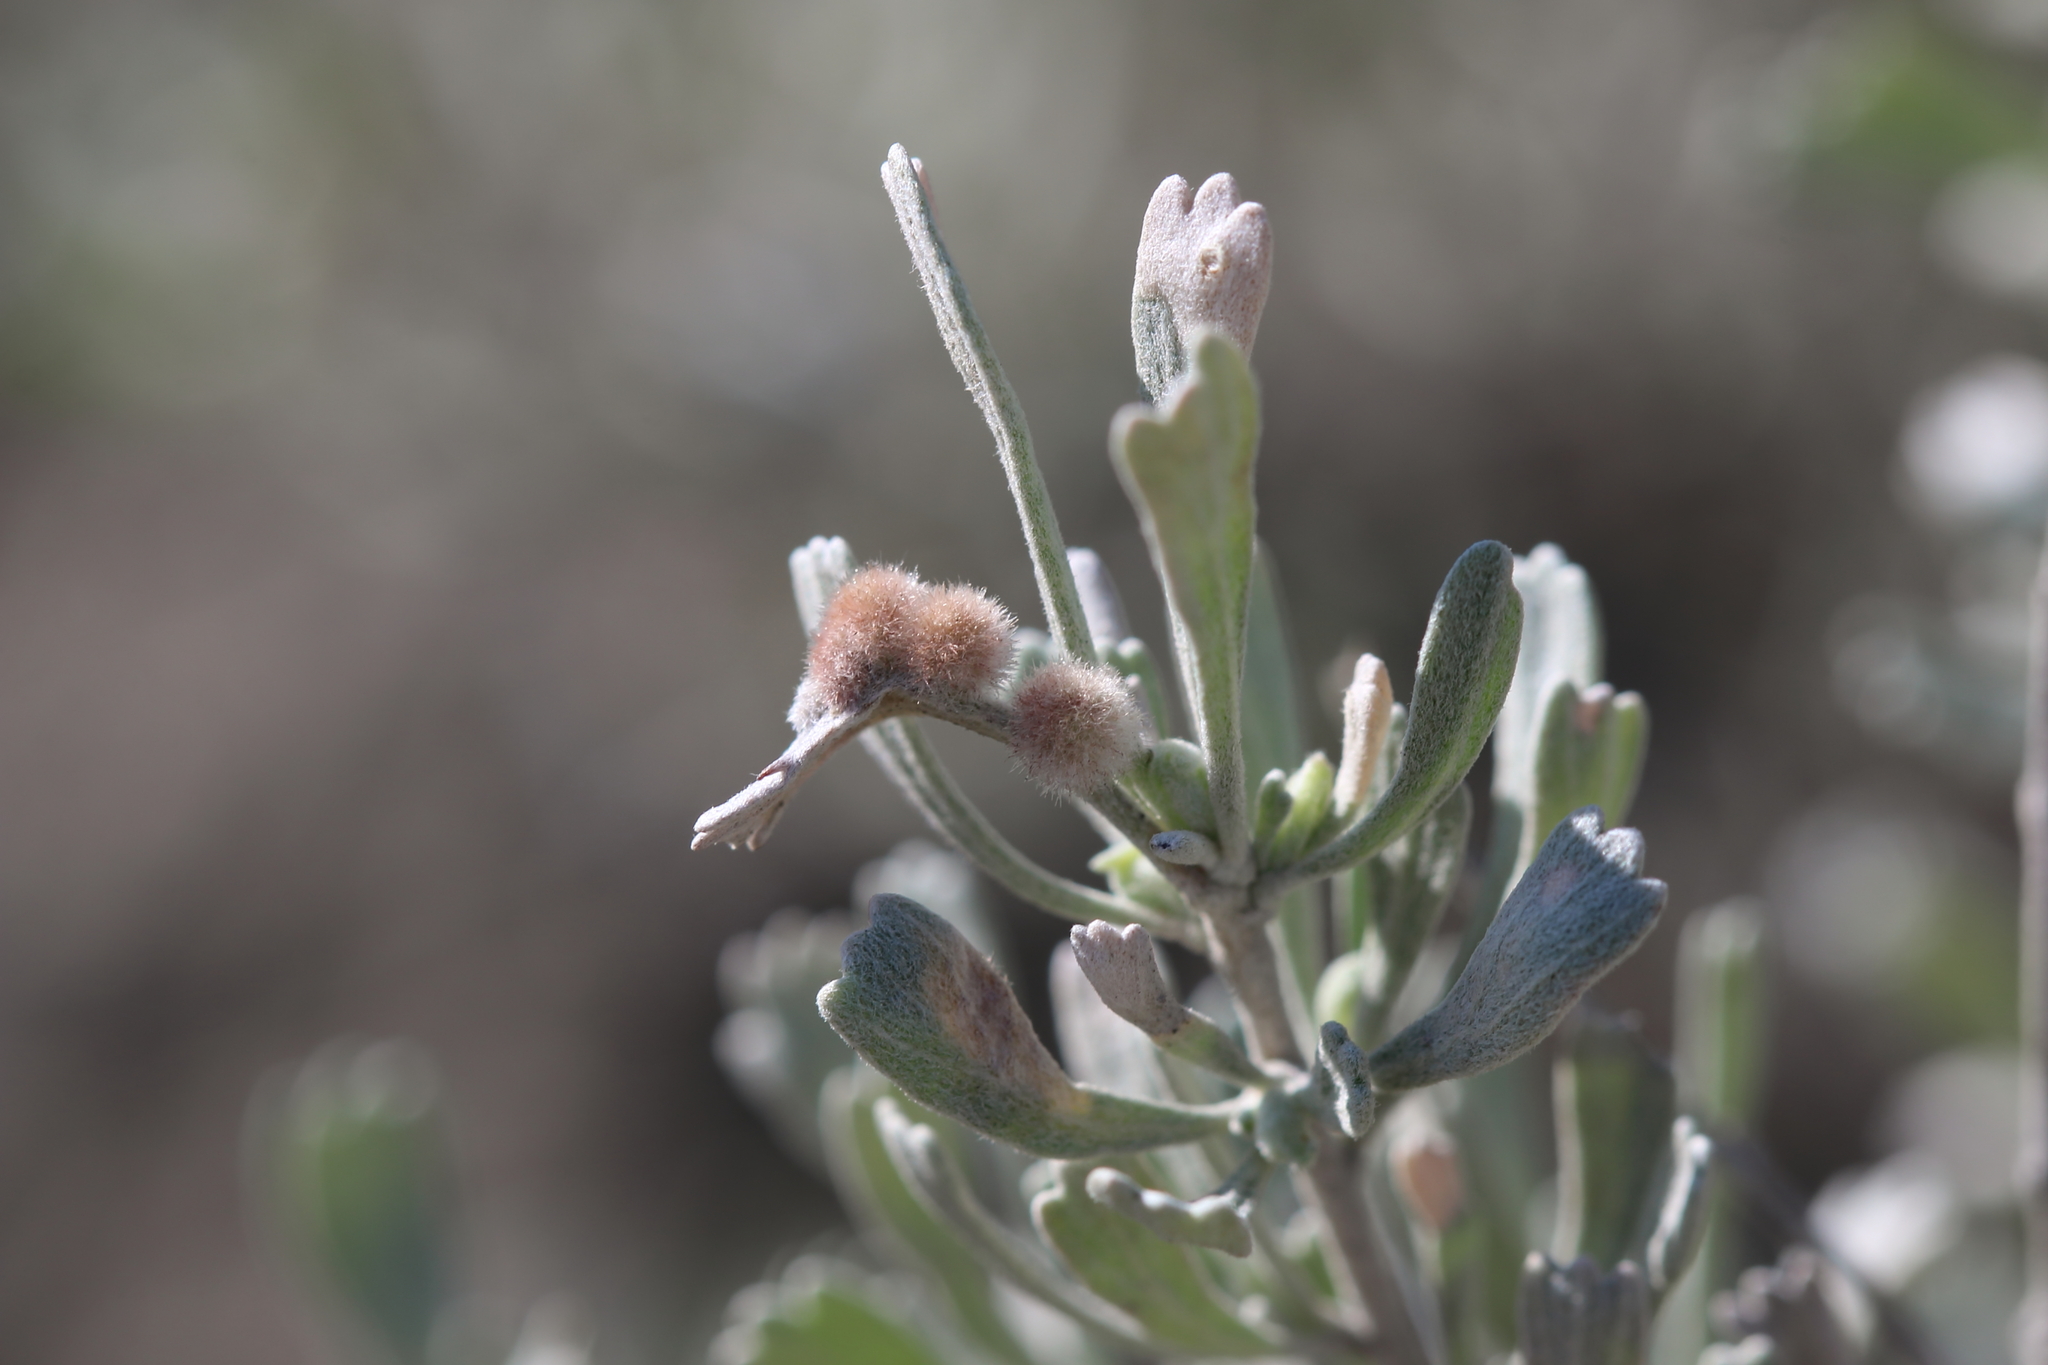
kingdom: Animalia
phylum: Arthropoda
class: Insecta
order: Diptera
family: Cecidomyiidae
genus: Rhopalomyia
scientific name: Rhopalomyia hirtipomum
